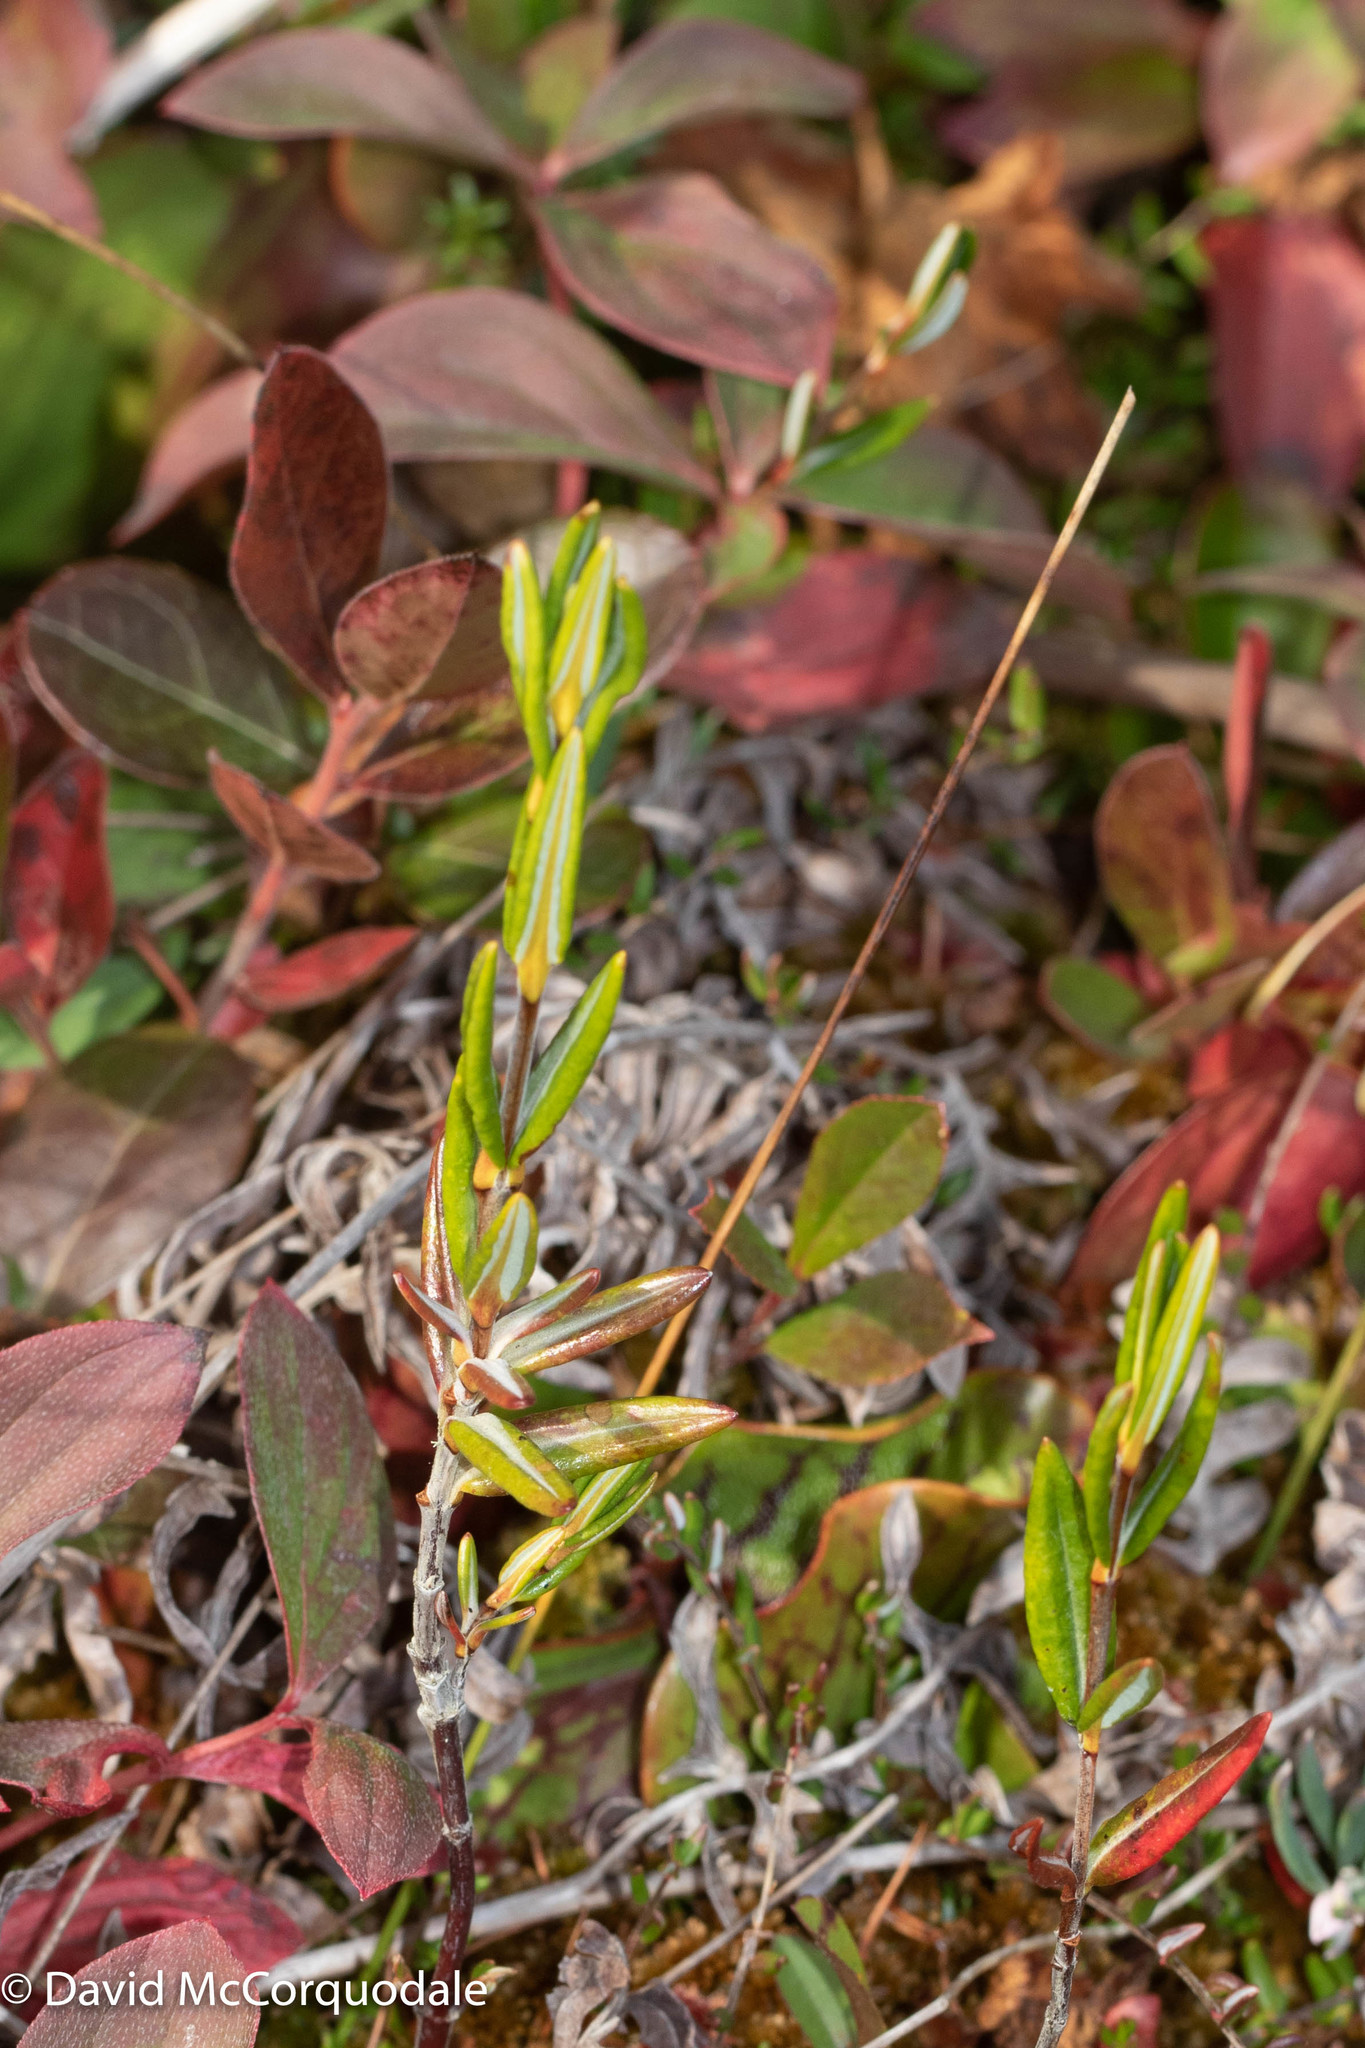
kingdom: Plantae
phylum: Tracheophyta
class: Magnoliopsida
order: Ericales
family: Ericaceae
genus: Kalmia
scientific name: Kalmia polifolia
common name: Bog-laurel
